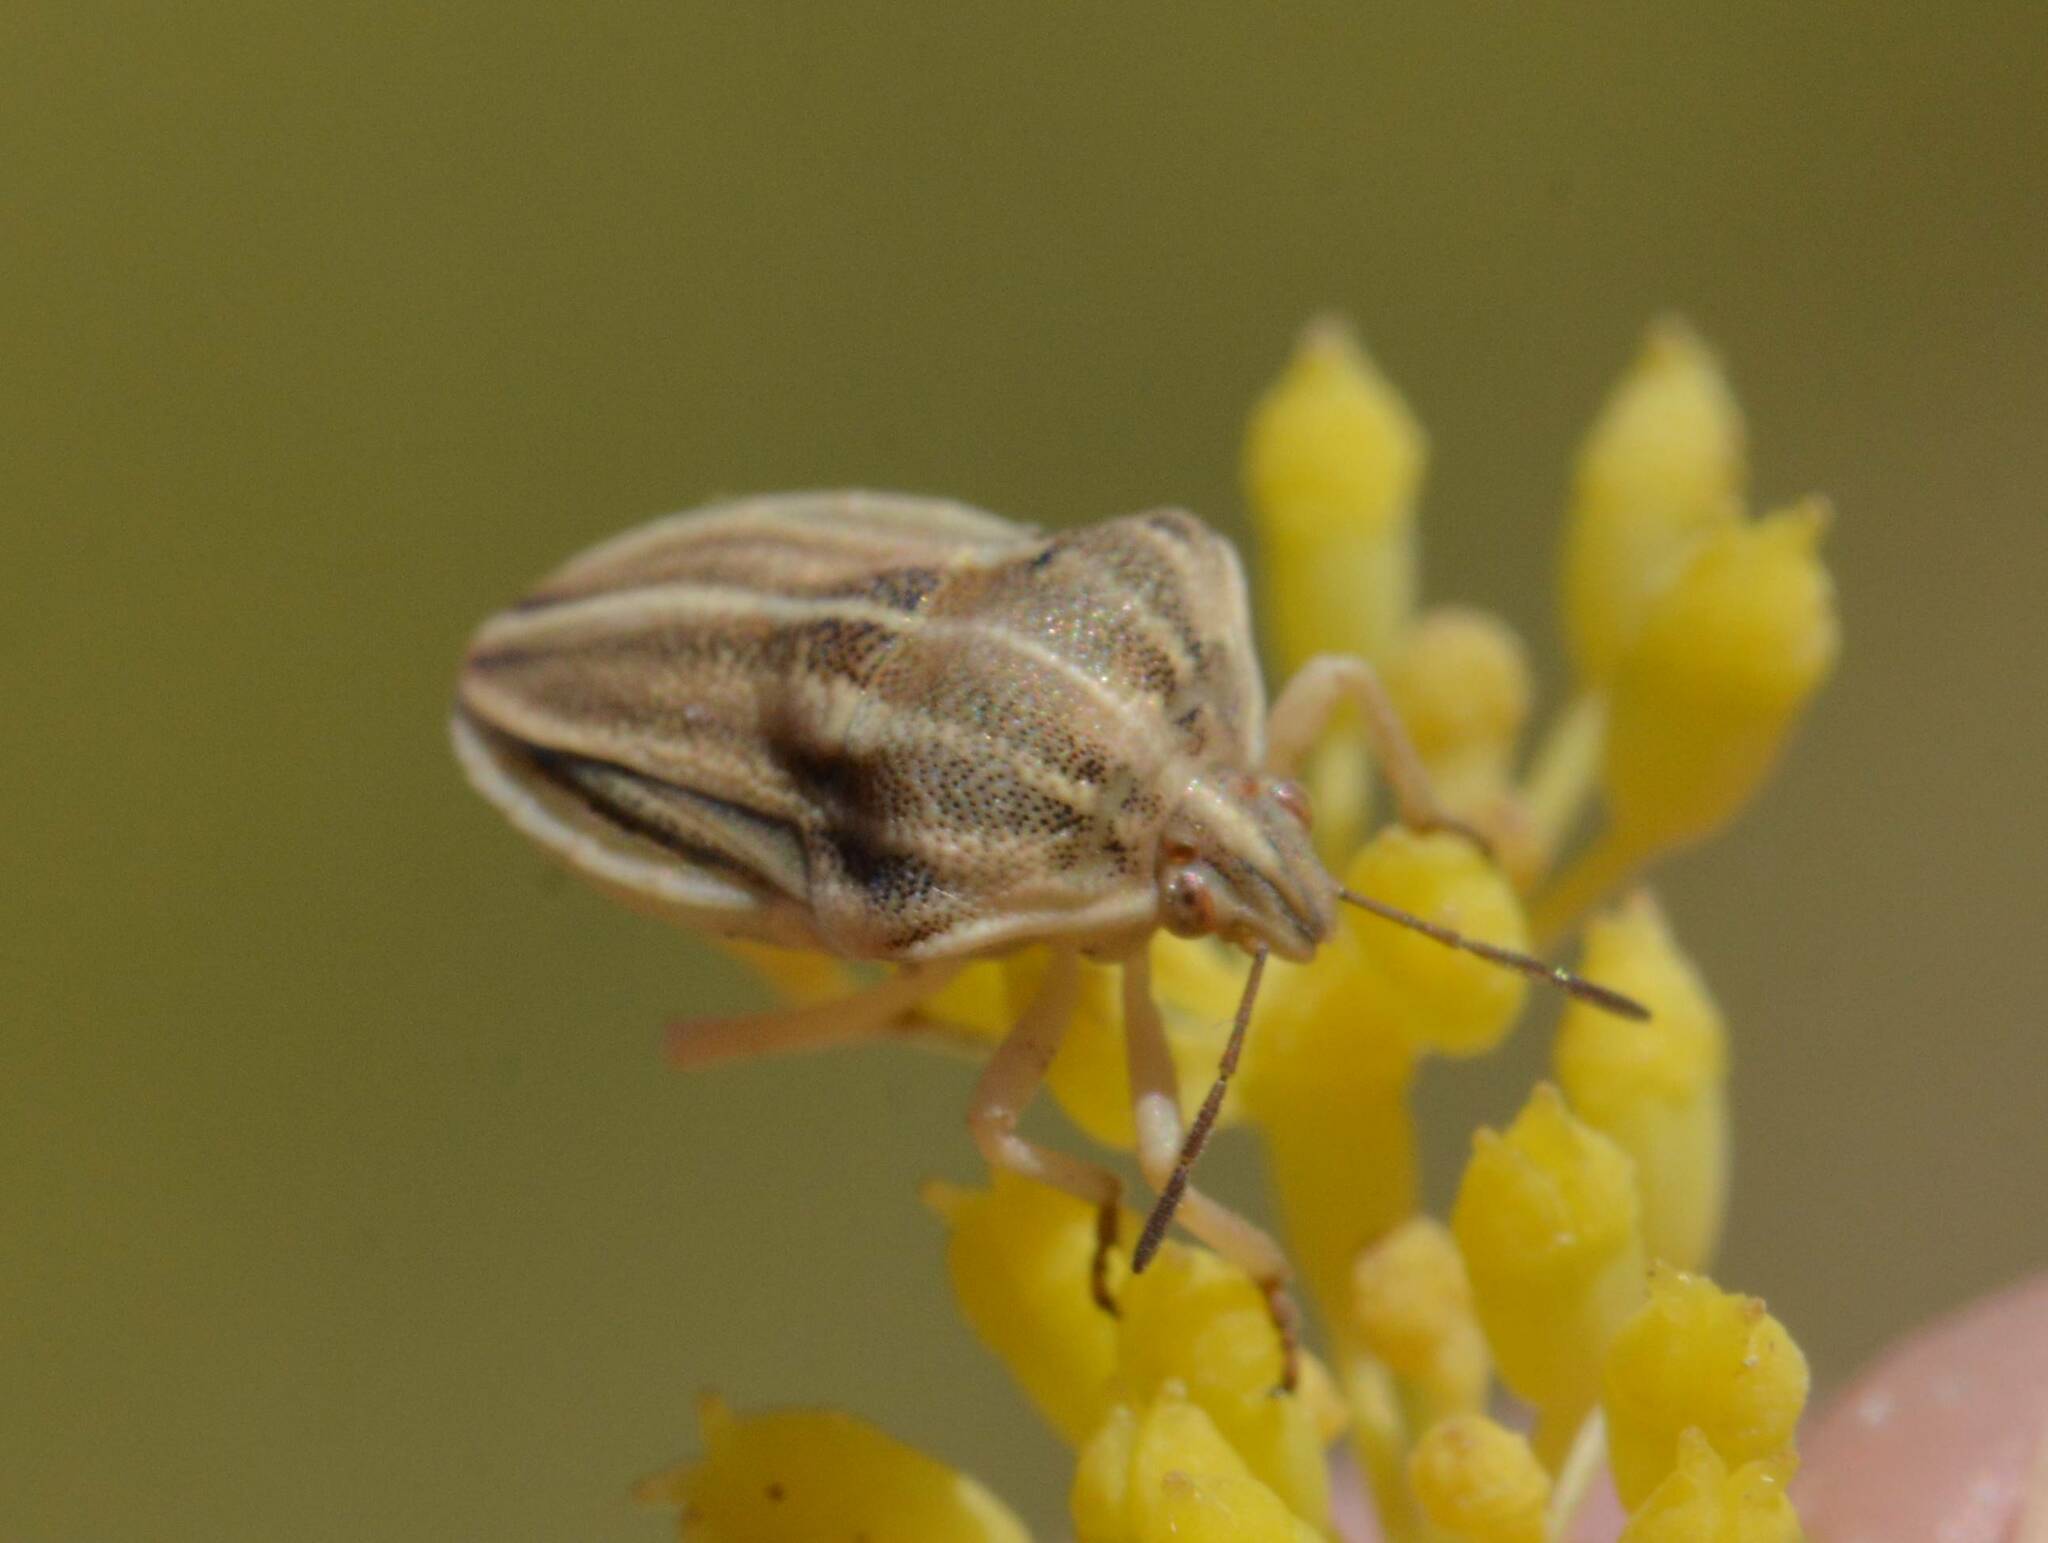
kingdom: Animalia
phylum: Arthropoda
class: Insecta
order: Hemiptera
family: Pentatomidae
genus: Tholagmus
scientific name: Tholagmus strigatus
